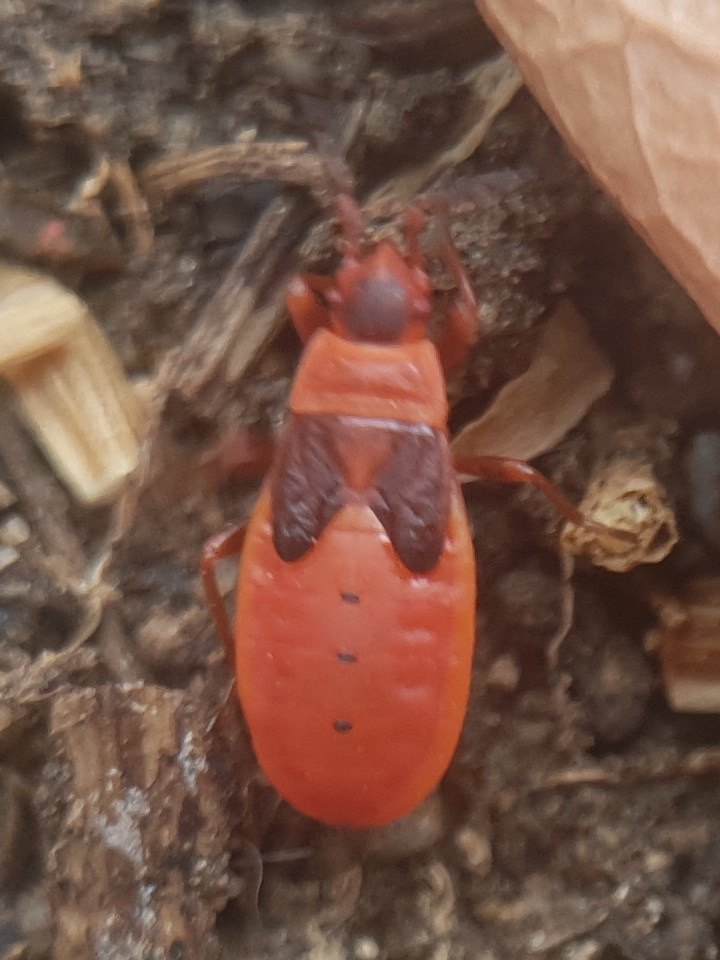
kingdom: Animalia
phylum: Arthropoda
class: Insecta
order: Hemiptera
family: Pyrrhocoridae
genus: Scantius
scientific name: Scantius aegyptius
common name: Red bug
